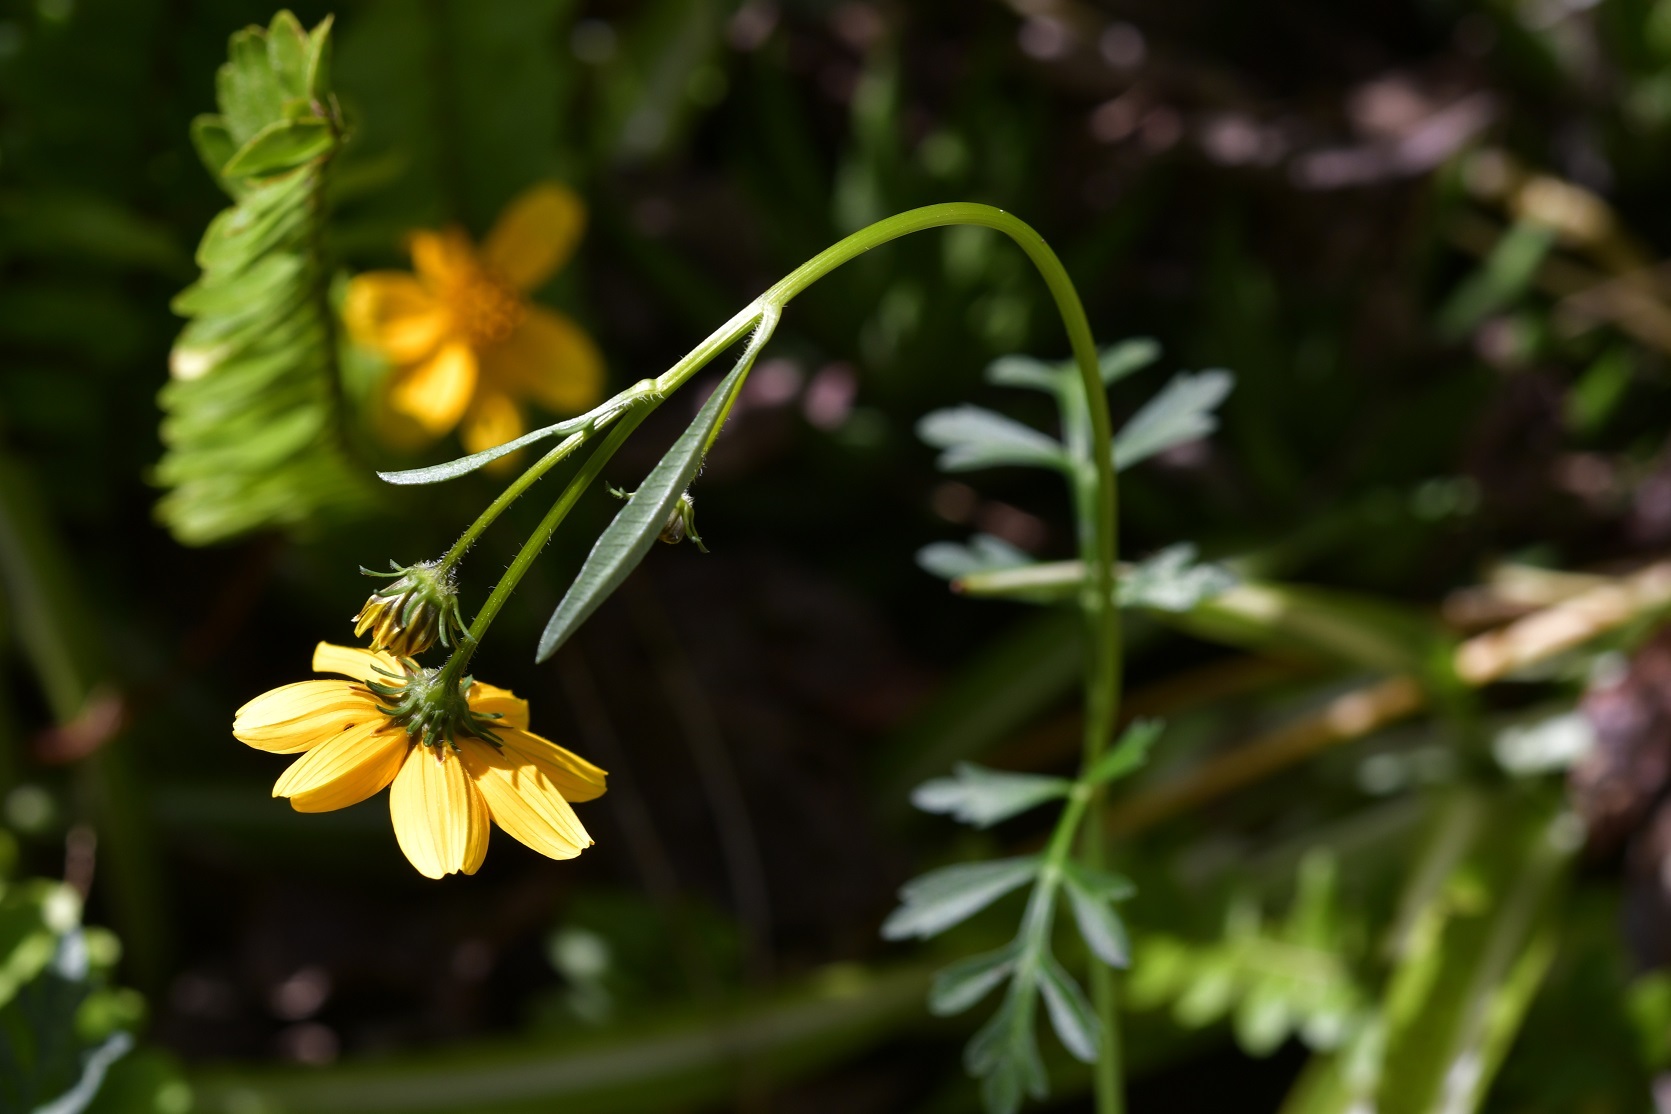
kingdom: Plantae
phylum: Tracheophyta
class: Magnoliopsida
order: Asterales
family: Asteraceae
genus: Bidens
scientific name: Bidens triplinervia
